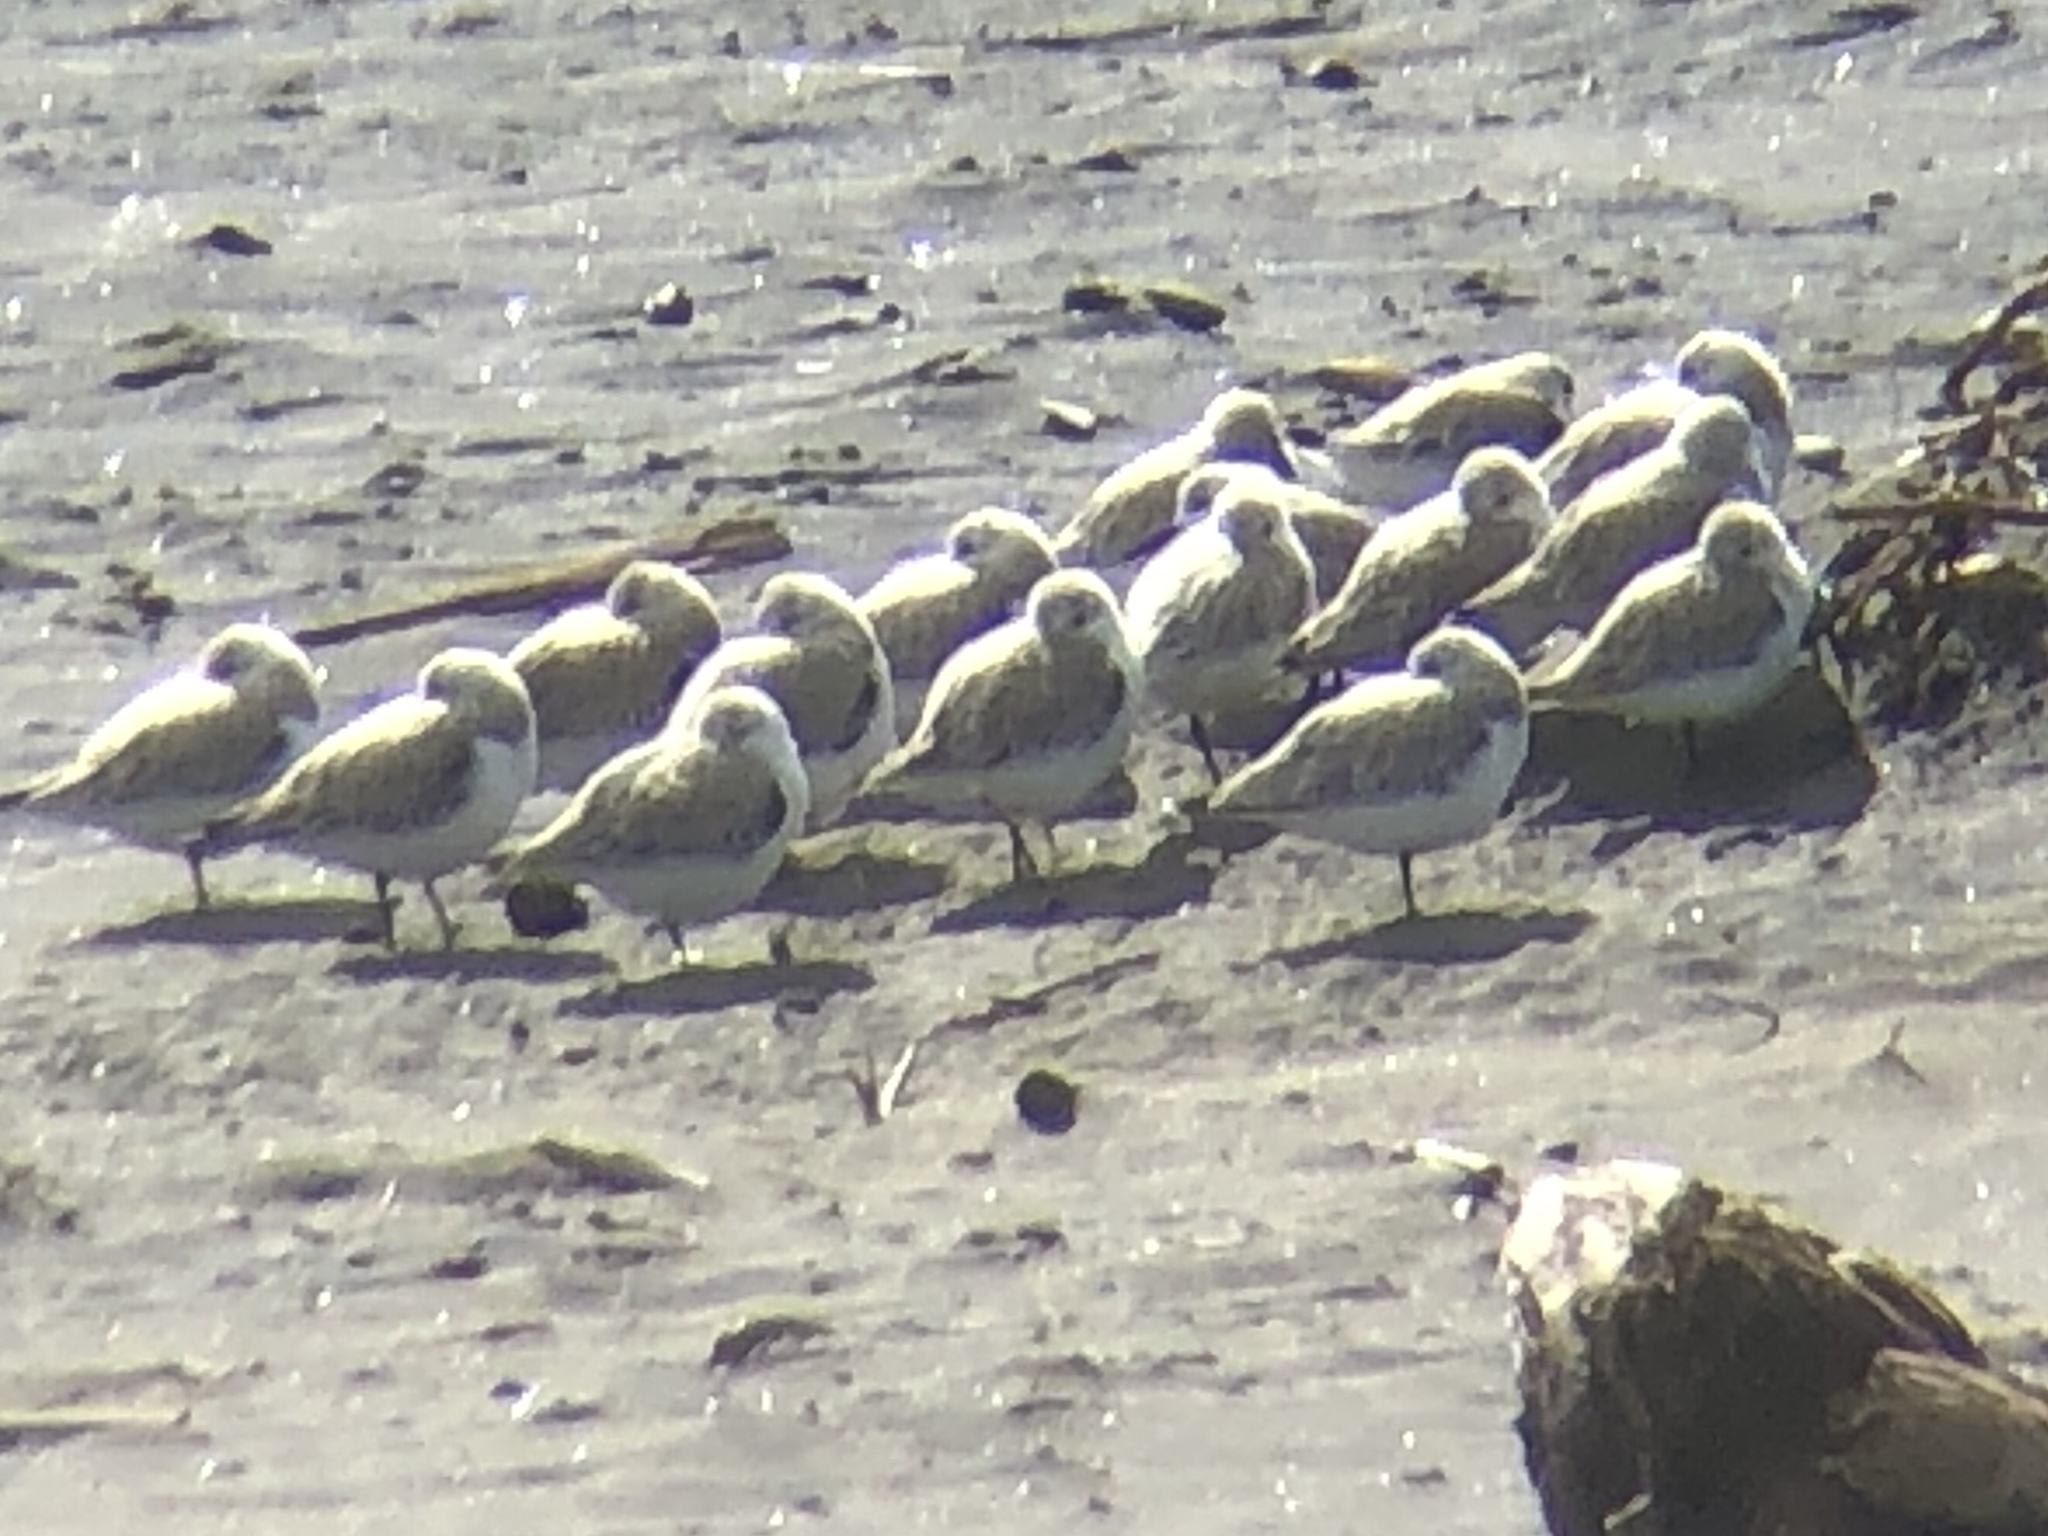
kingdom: Animalia
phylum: Chordata
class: Aves
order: Charadriiformes
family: Scolopacidae
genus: Calidris
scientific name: Calidris alba
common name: Sanderling
